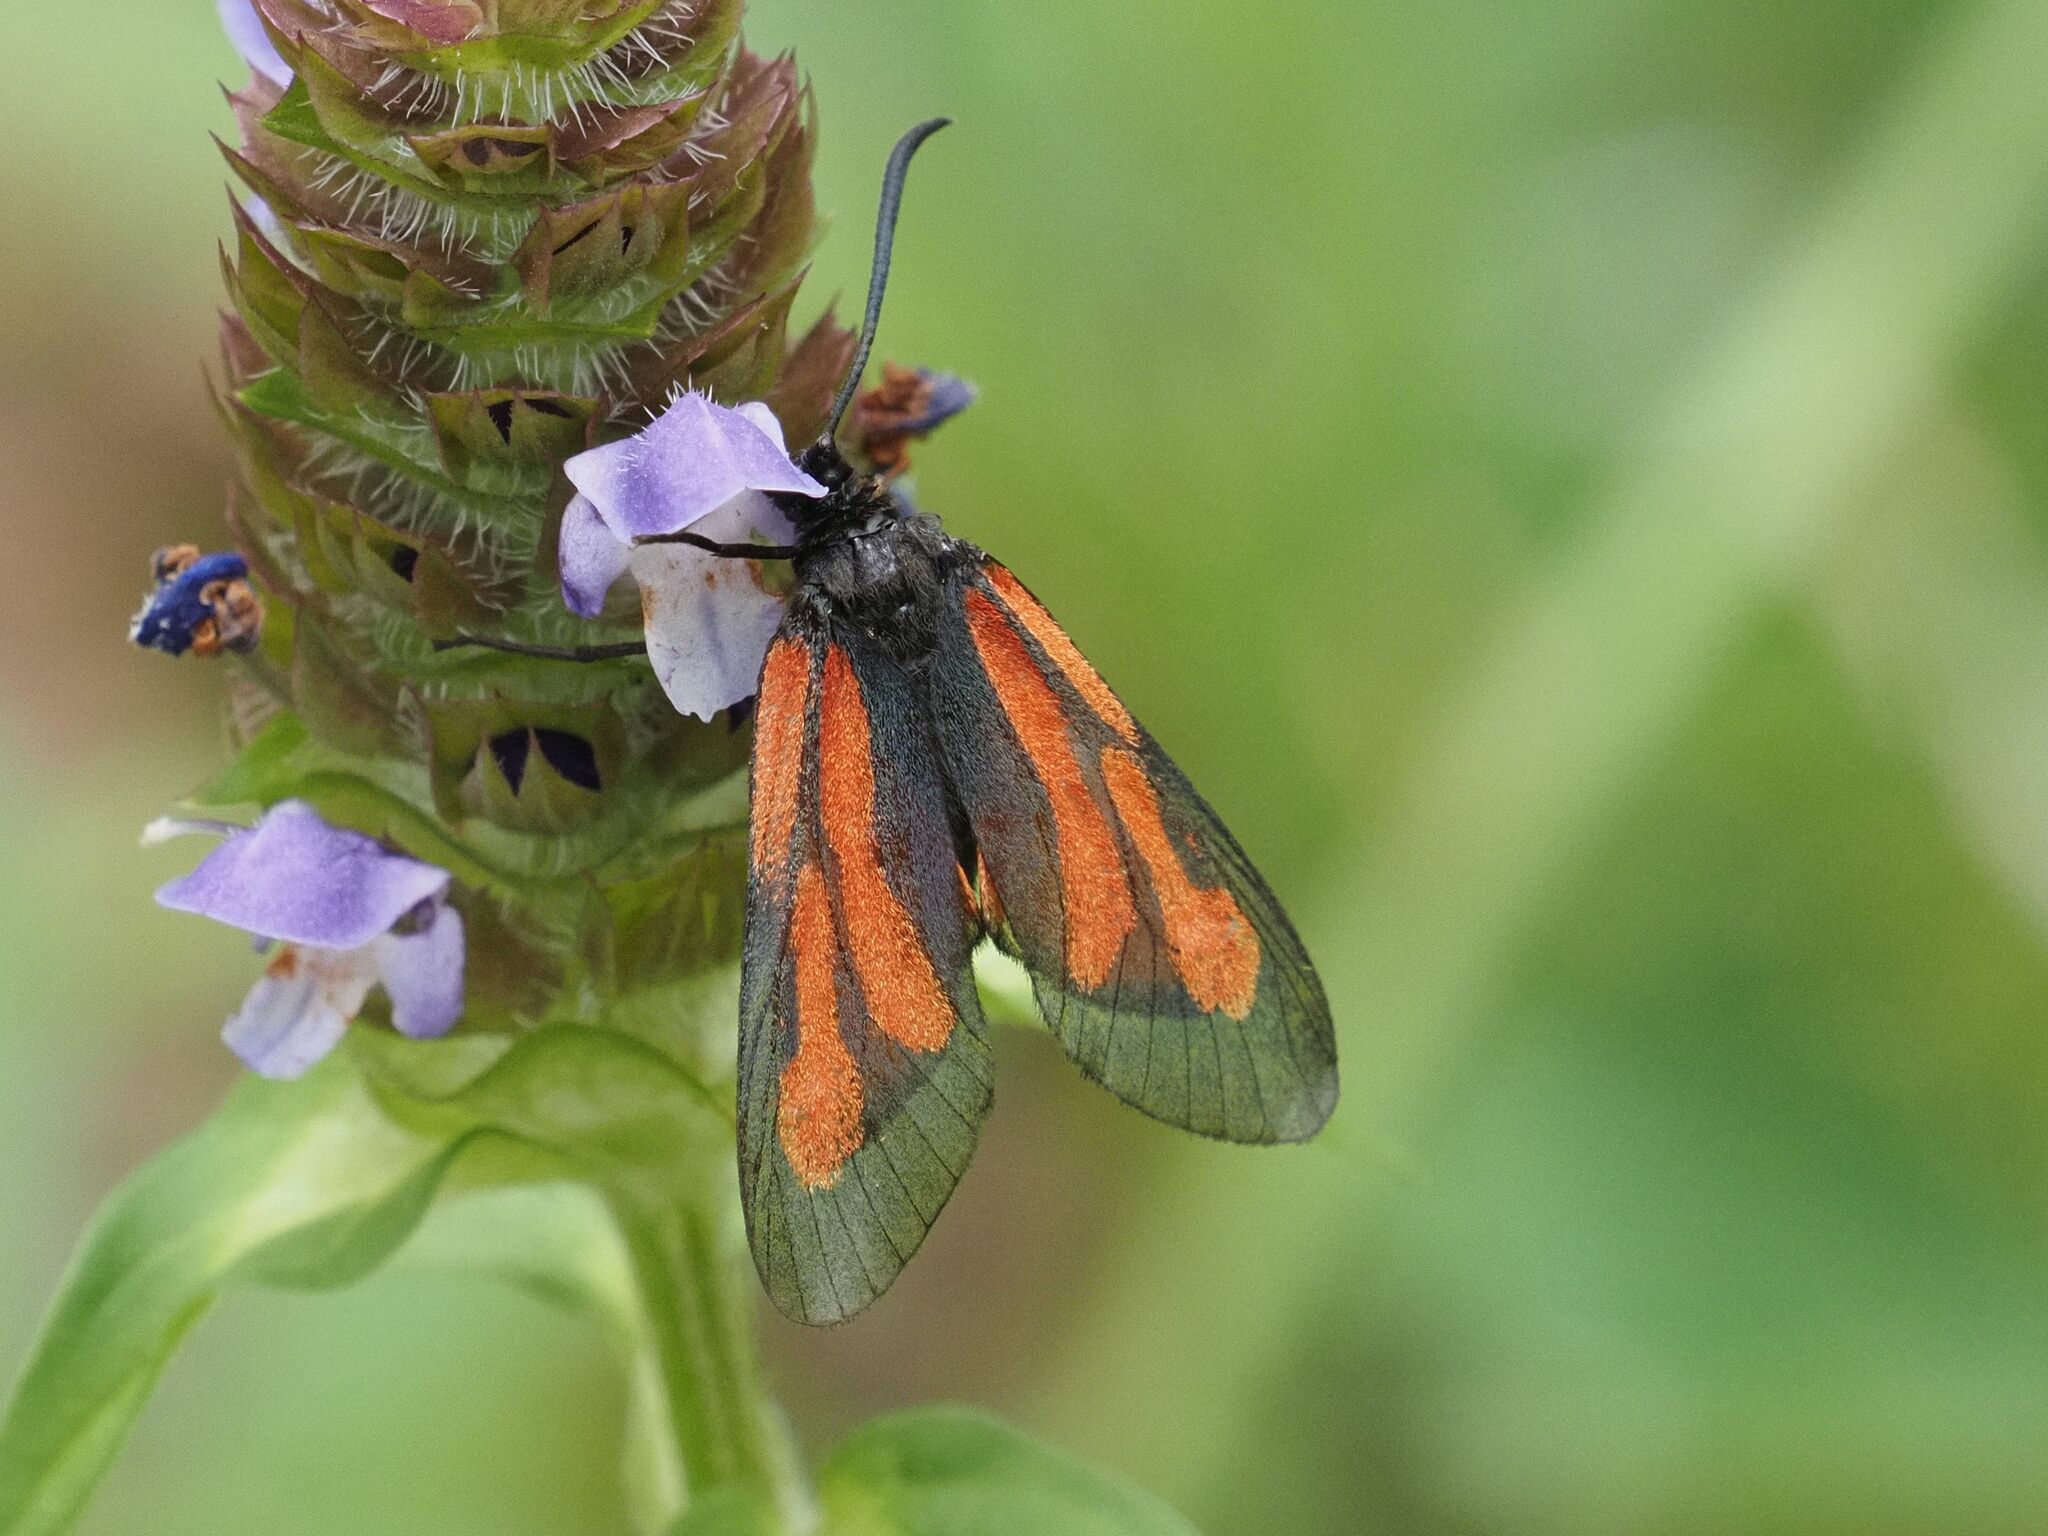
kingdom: Animalia
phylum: Arthropoda
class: Insecta
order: Lepidoptera
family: Zygaenidae
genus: Zygaena
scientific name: Zygaena osterodensis
